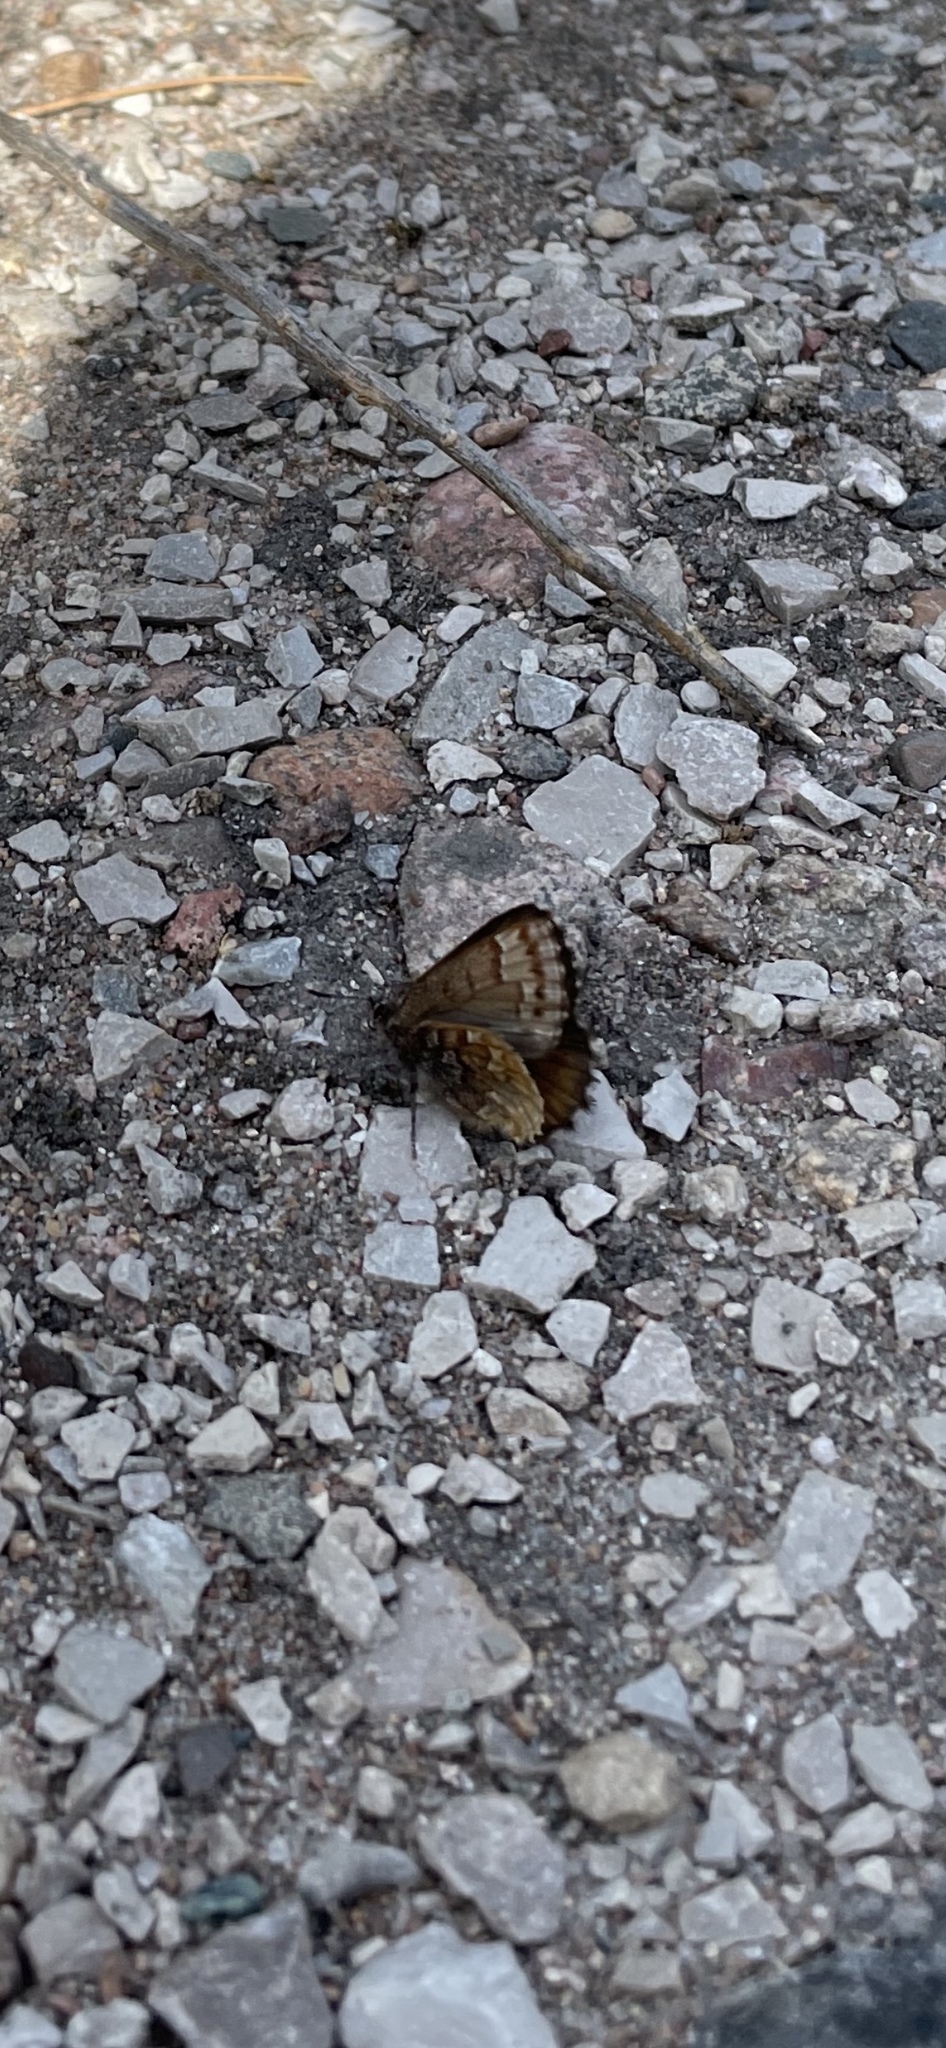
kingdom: Animalia
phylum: Arthropoda
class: Insecta
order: Lepidoptera
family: Lycaenidae
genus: Incisalia
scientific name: Incisalia niphon
